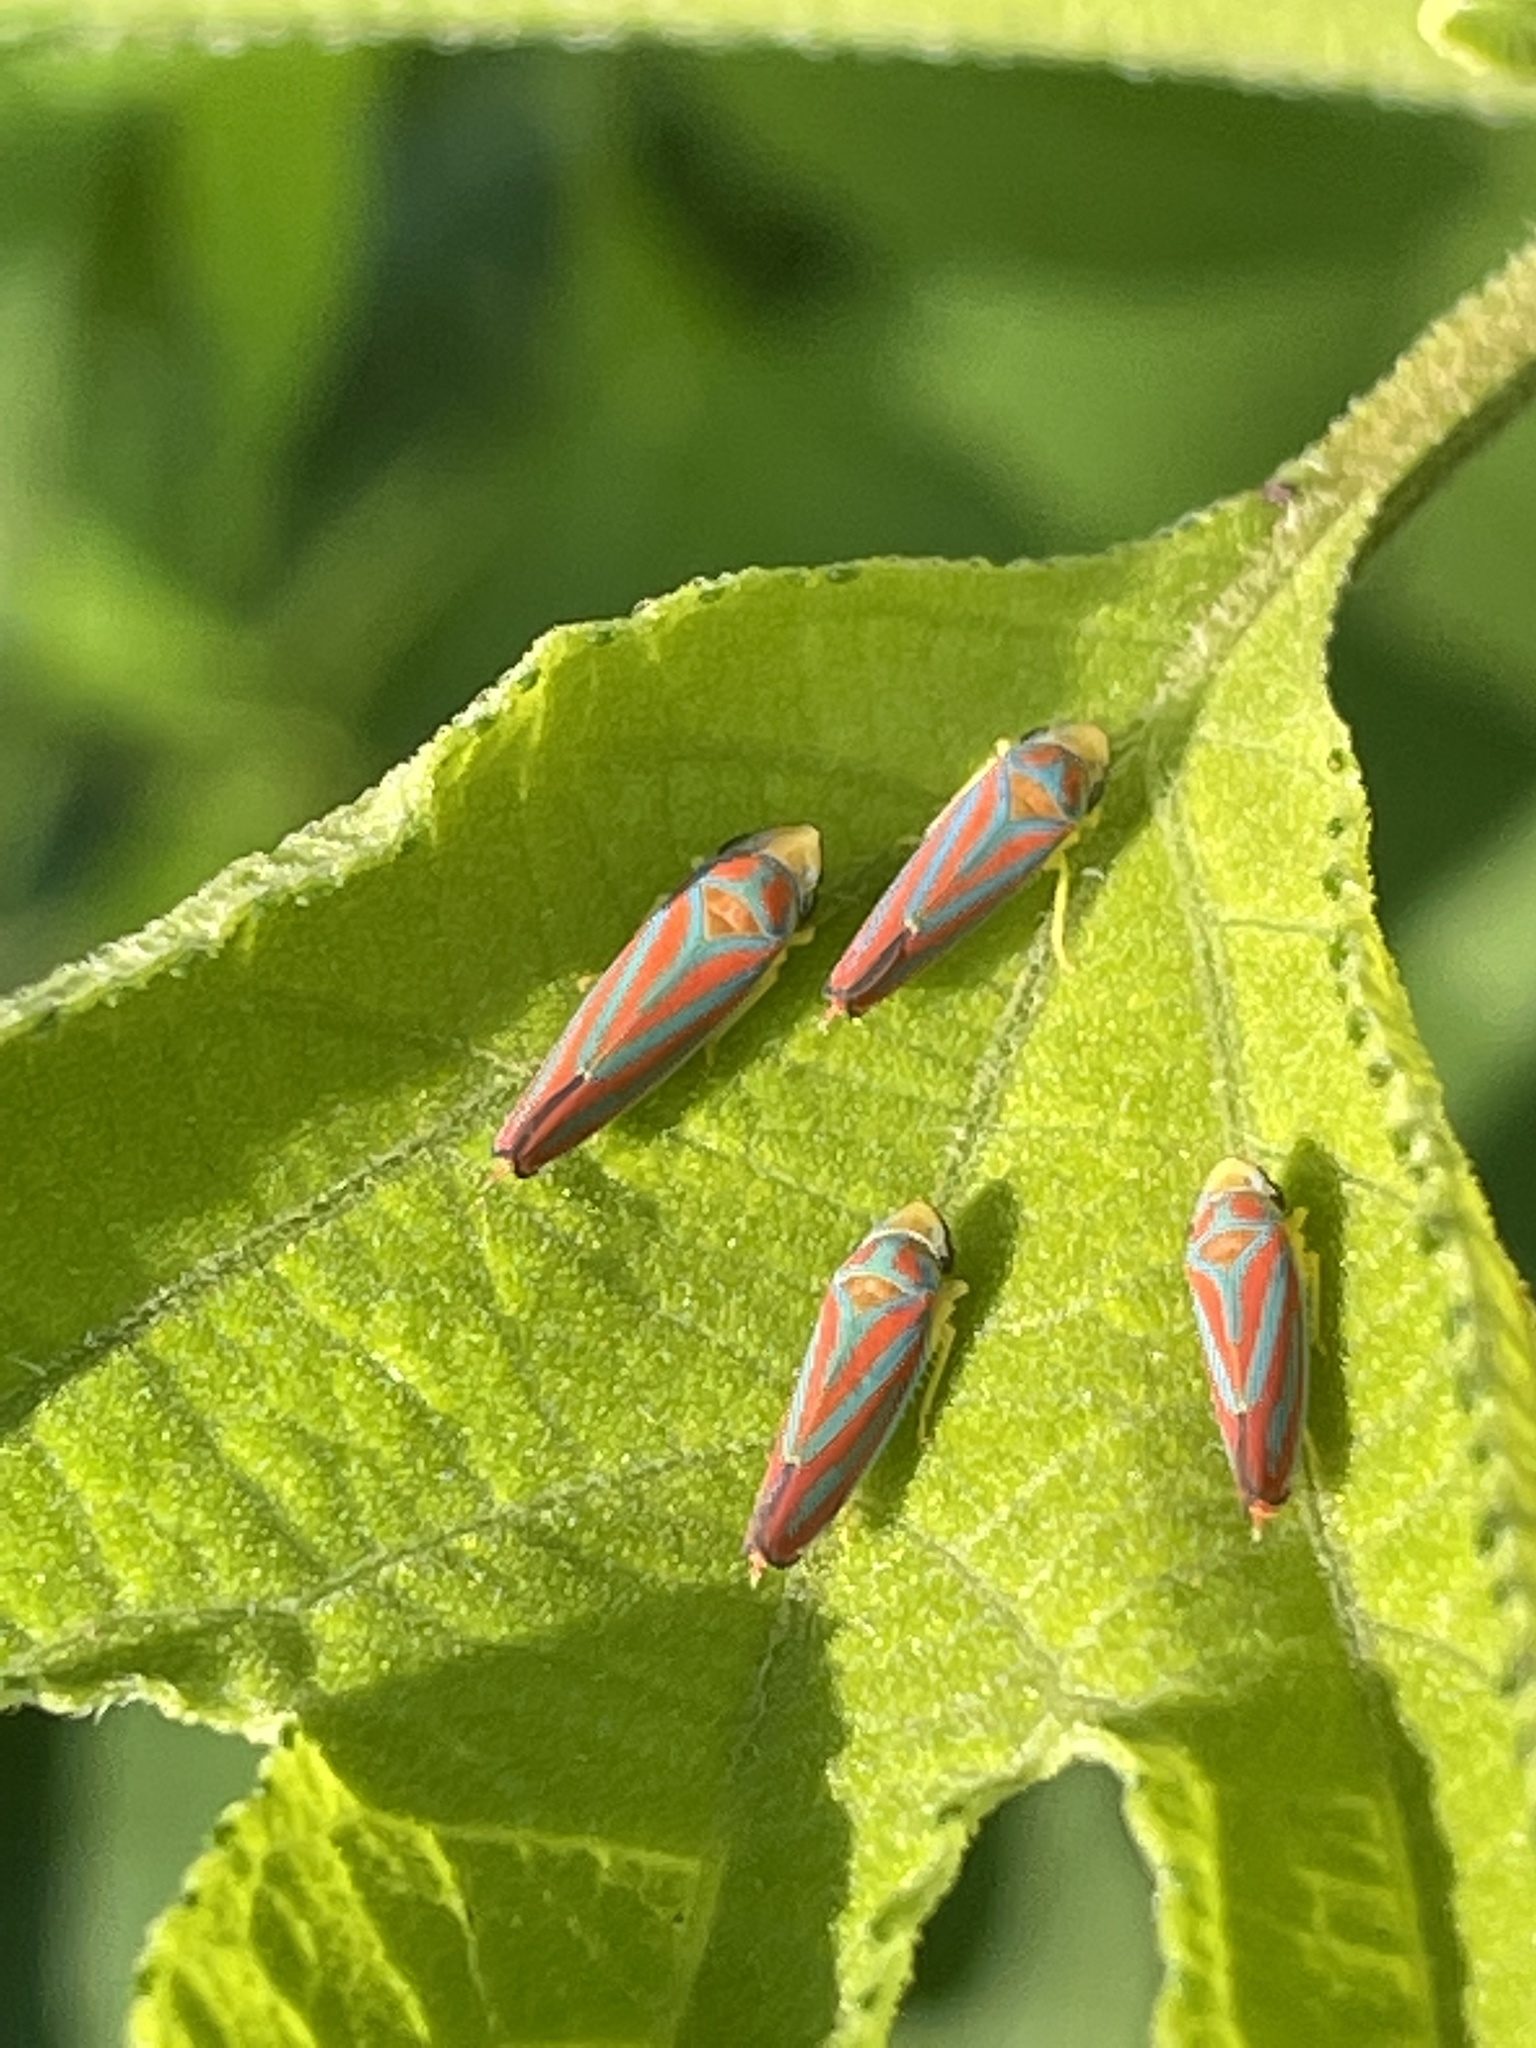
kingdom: Animalia
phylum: Arthropoda
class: Insecta
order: Hemiptera
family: Cicadellidae
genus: Graphocephala
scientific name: Graphocephala coccinea
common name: Candy-striped leafhopper
